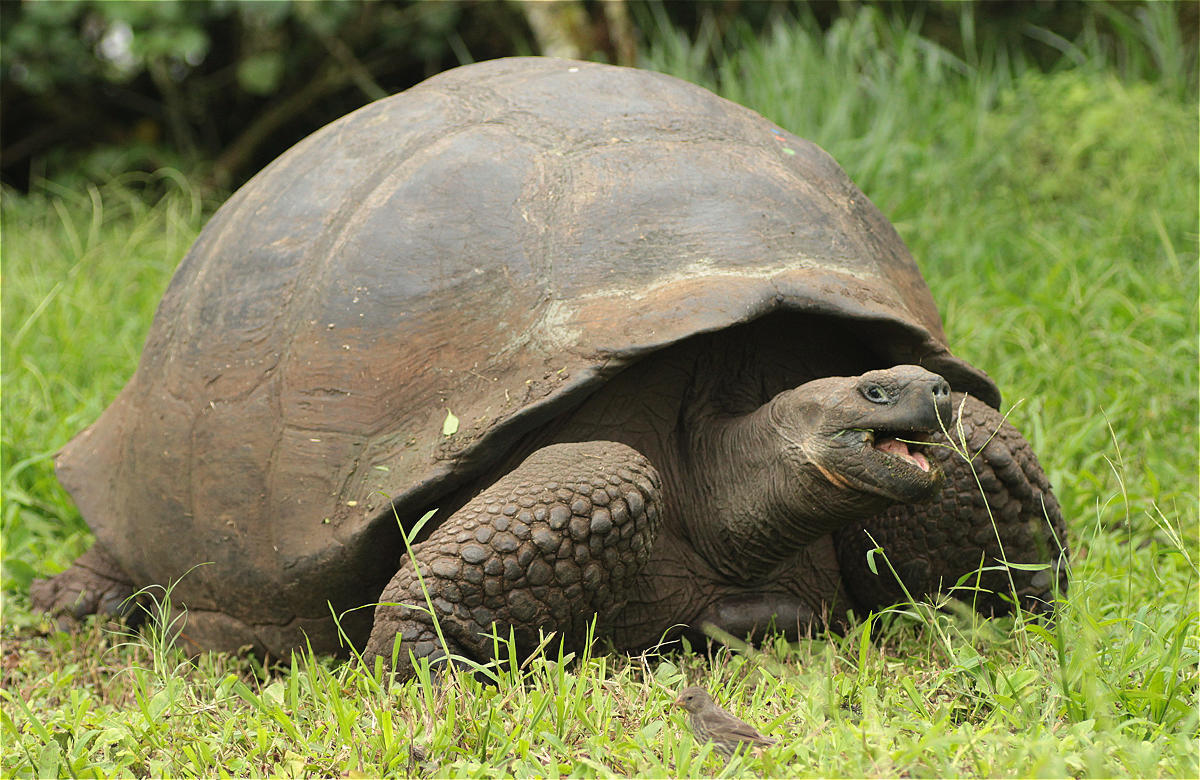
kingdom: Animalia
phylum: Chordata
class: Testudines
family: Testudinidae
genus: Chelonoidis
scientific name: Chelonoidis porteri
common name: Indefatigable island giant tortoise
